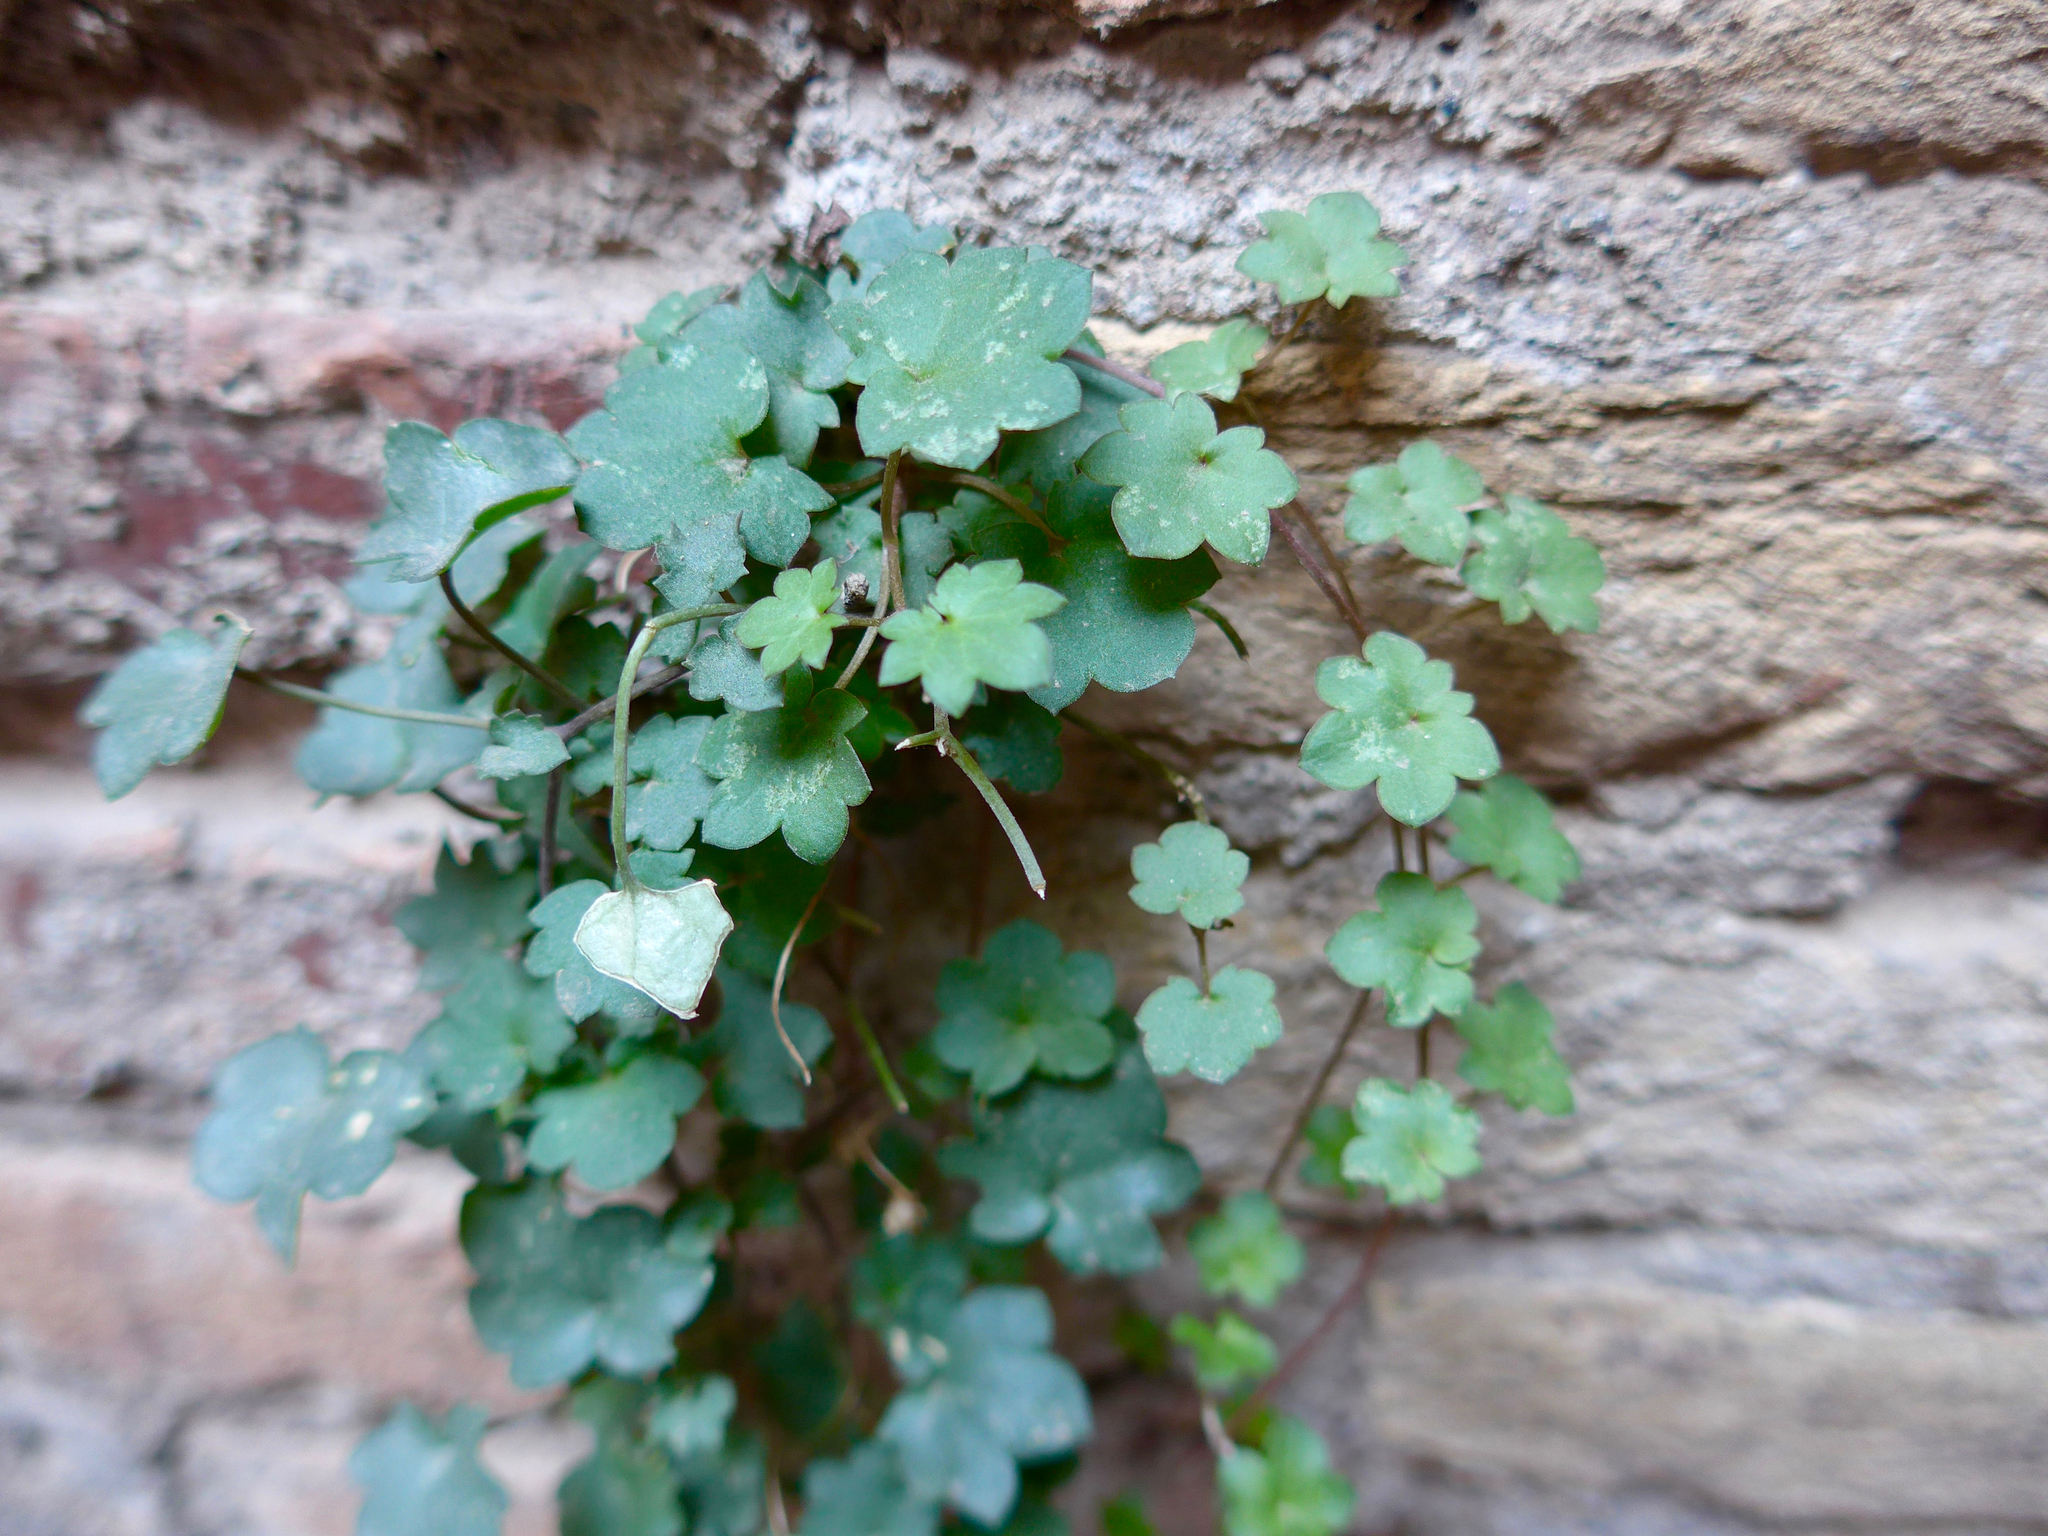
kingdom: Plantae
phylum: Tracheophyta
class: Magnoliopsida
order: Lamiales
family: Plantaginaceae
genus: Cymbalaria
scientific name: Cymbalaria muralis
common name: Ivy-leaved toadflax
